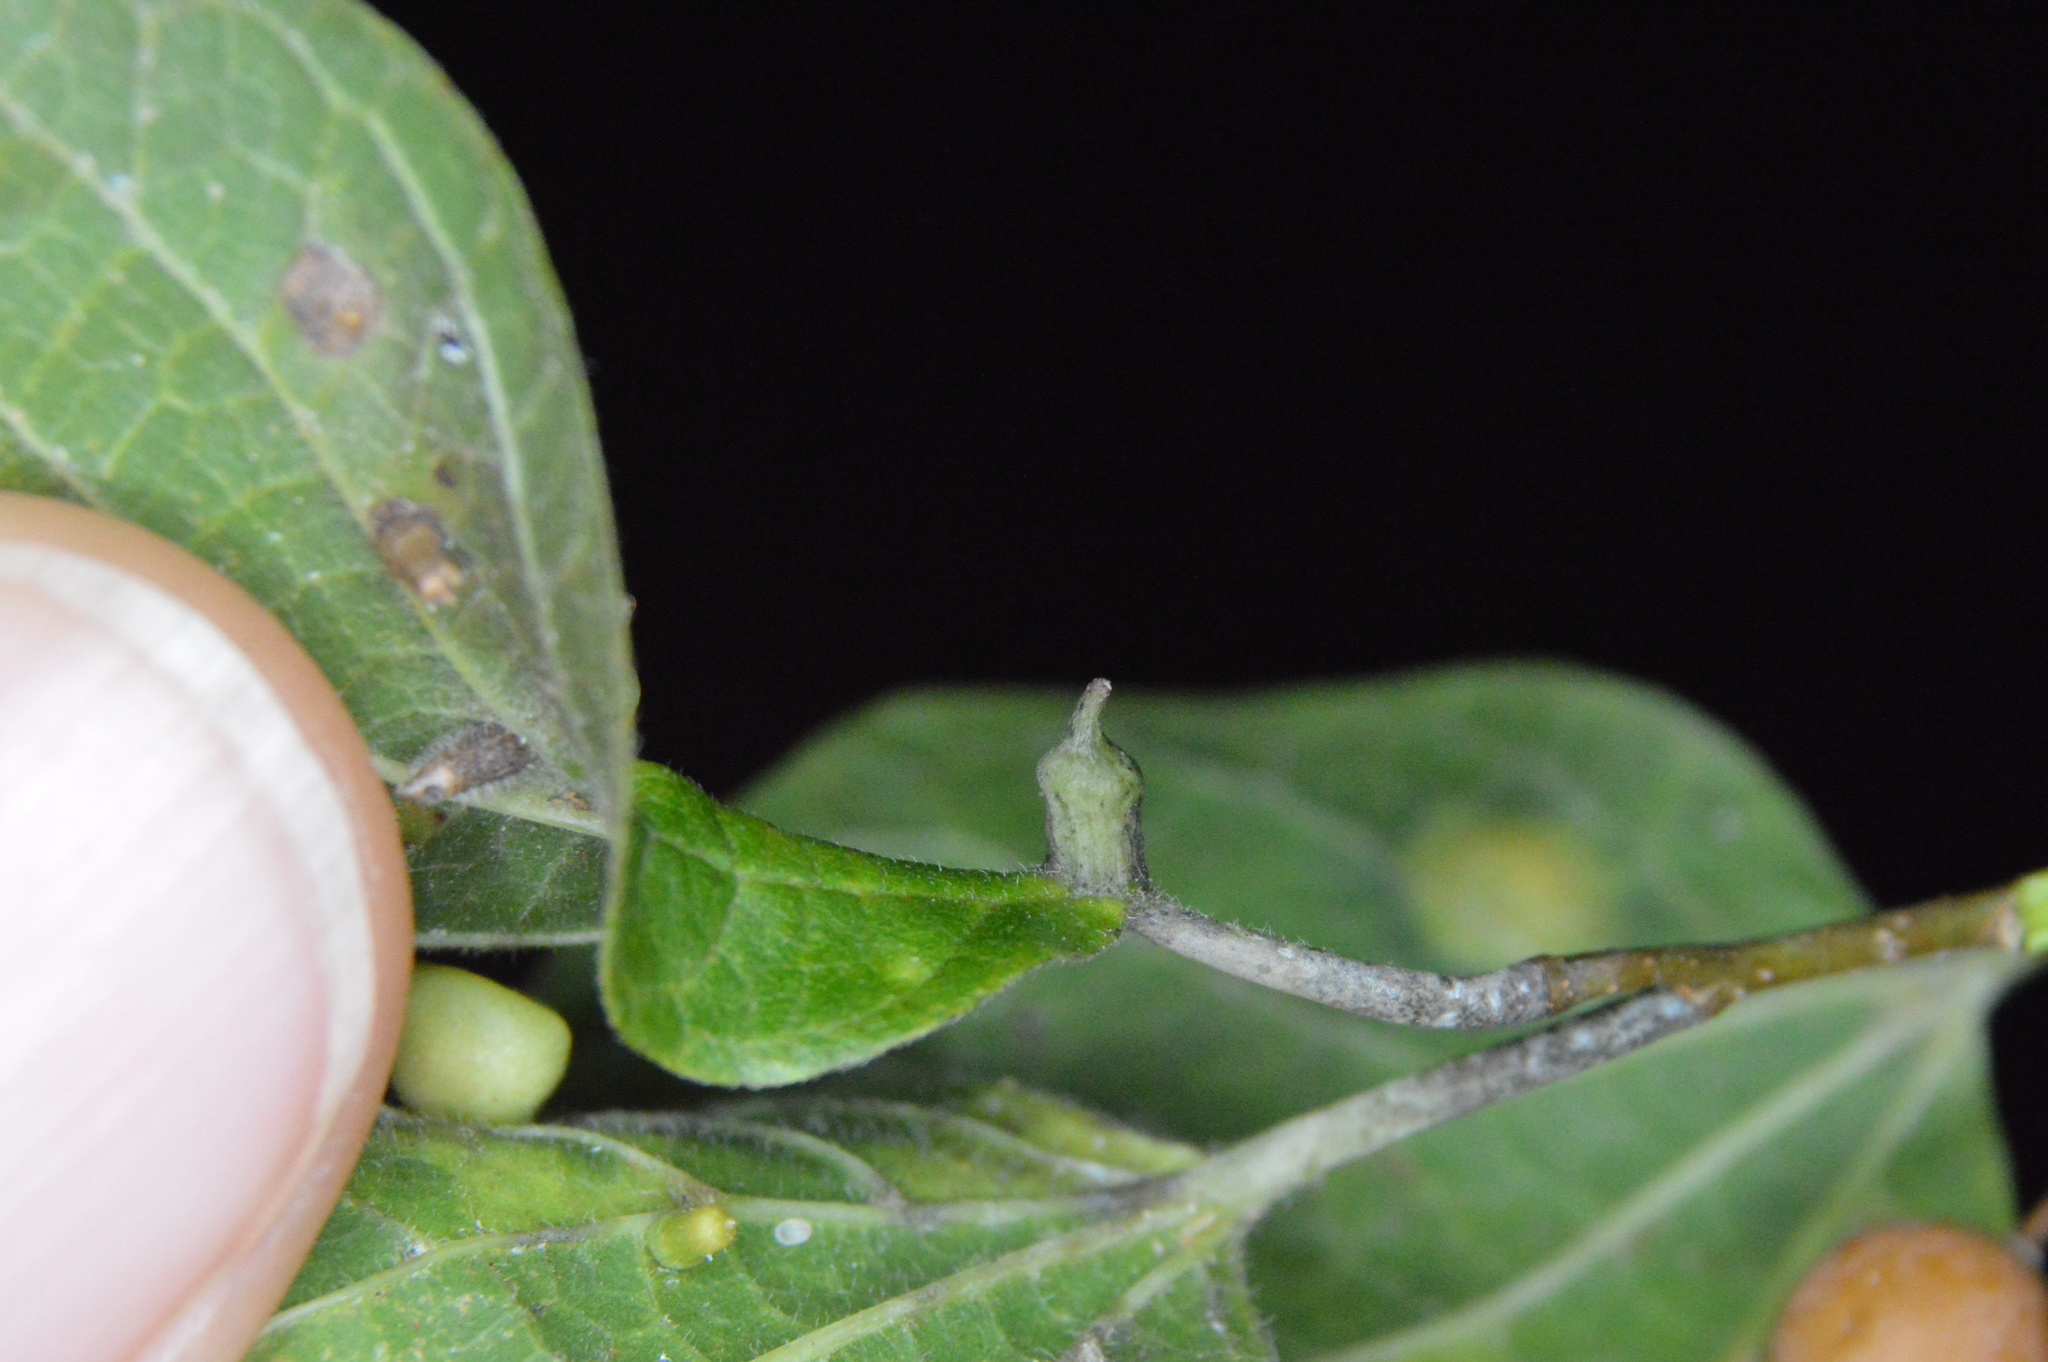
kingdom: Animalia
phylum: Arthropoda
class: Insecta
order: Diptera
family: Cecidomyiidae
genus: Celticecis
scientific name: Celticecis ramicola
